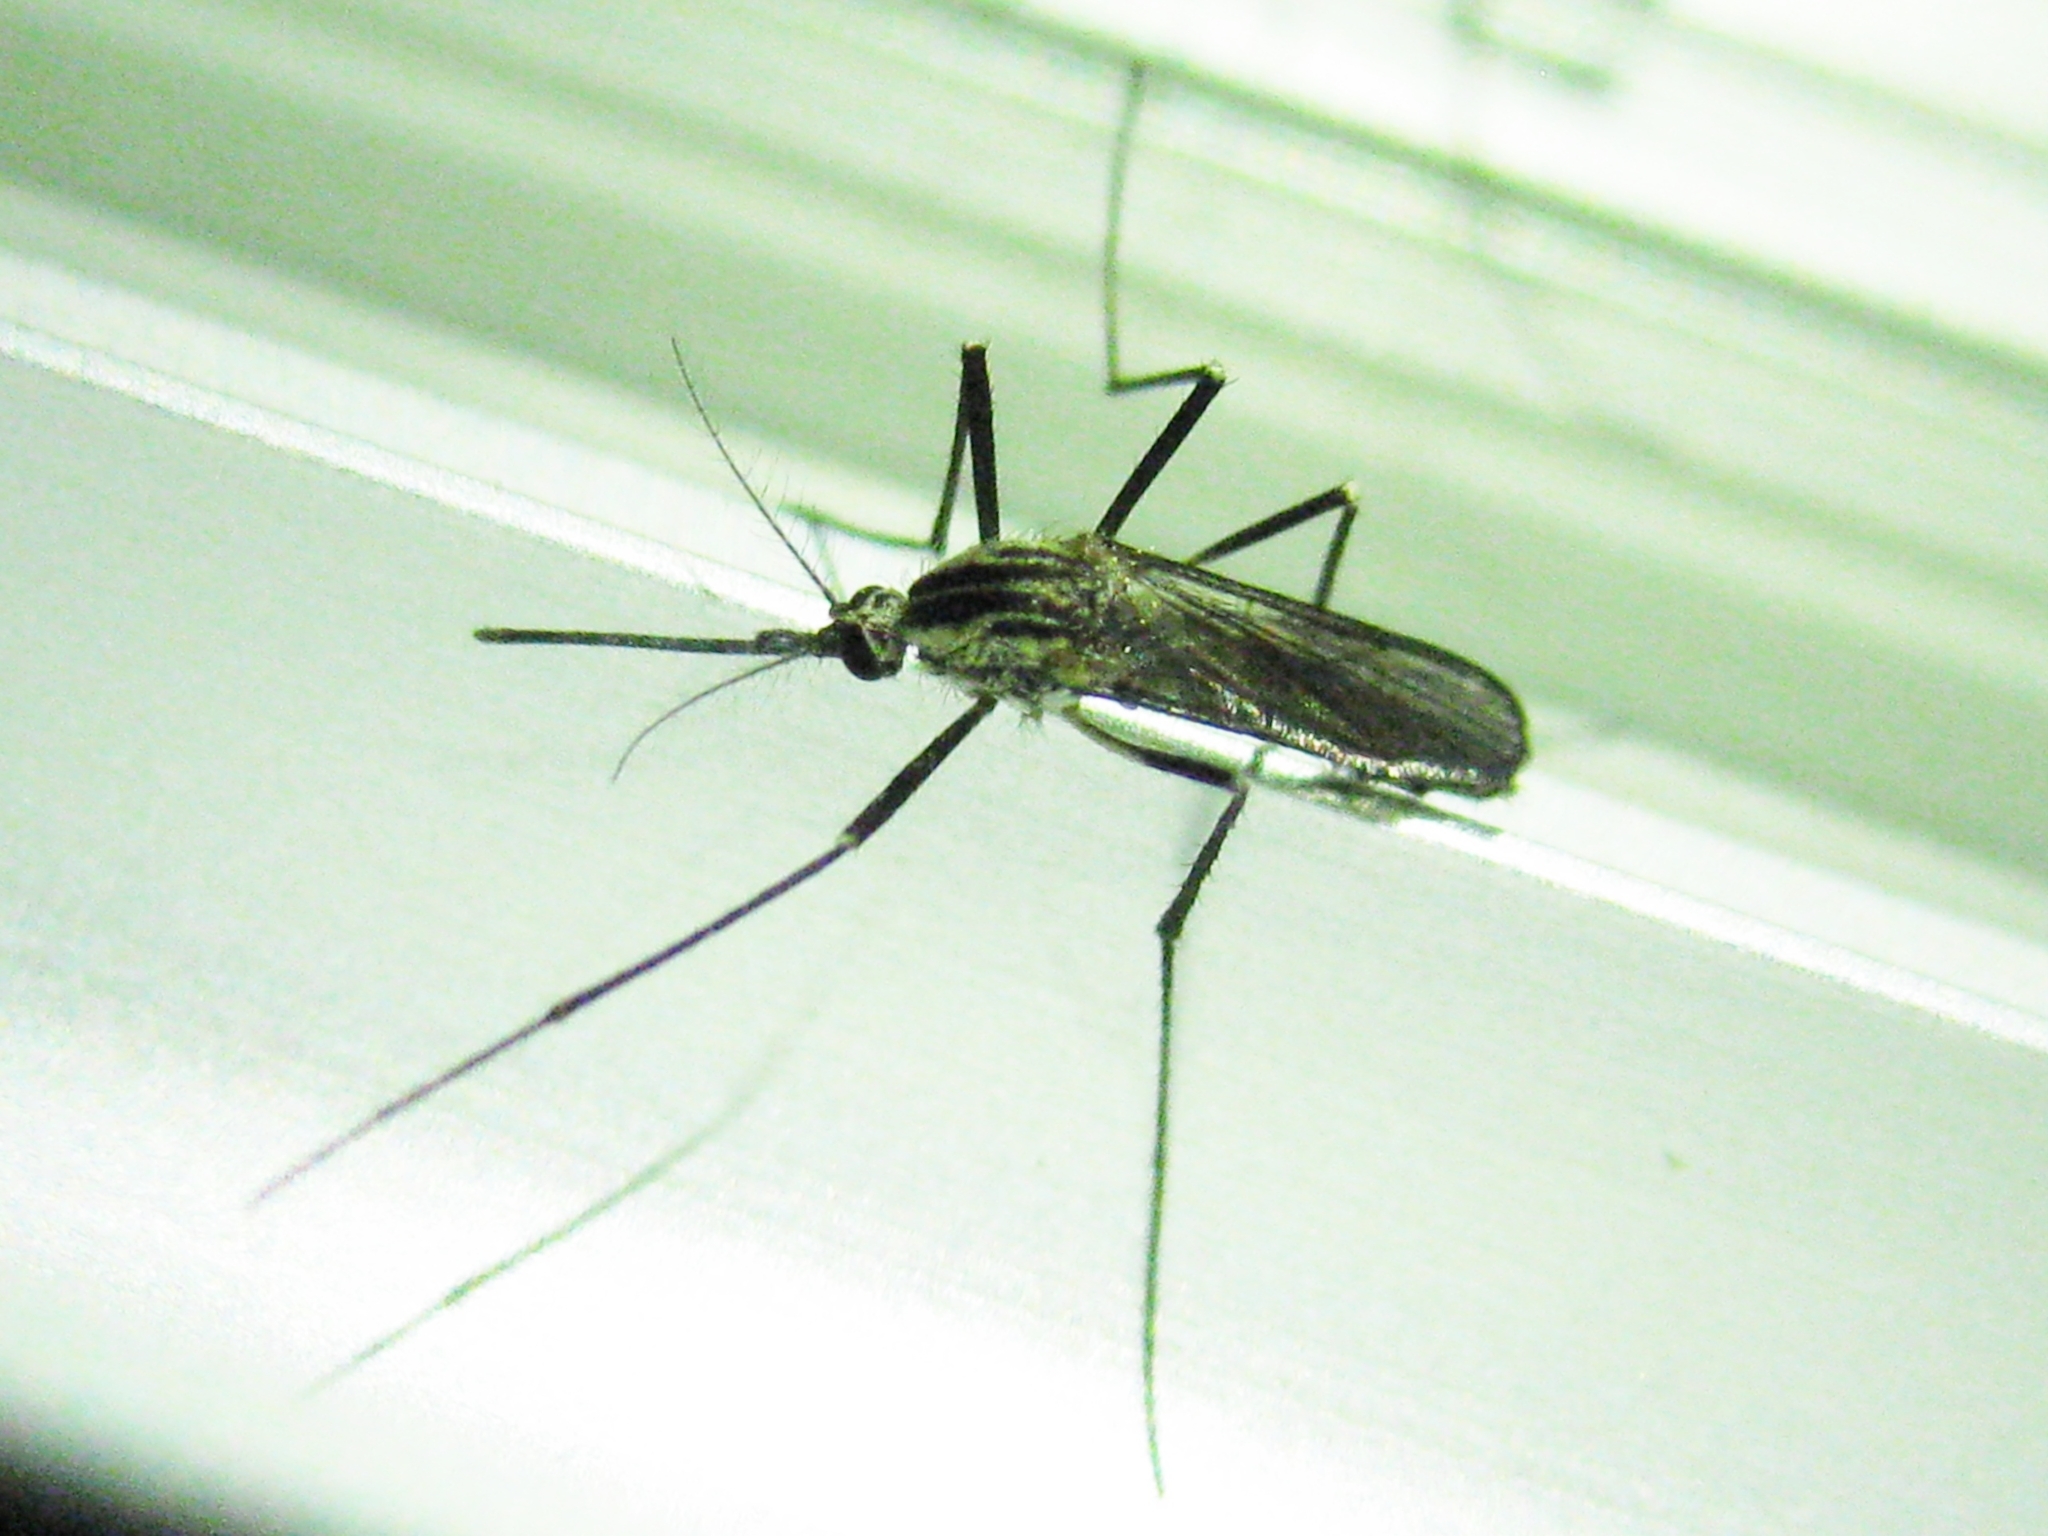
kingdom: Animalia
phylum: Arthropoda
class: Insecta
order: Diptera
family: Culicidae
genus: Aedes
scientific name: Aedes geniculatus
